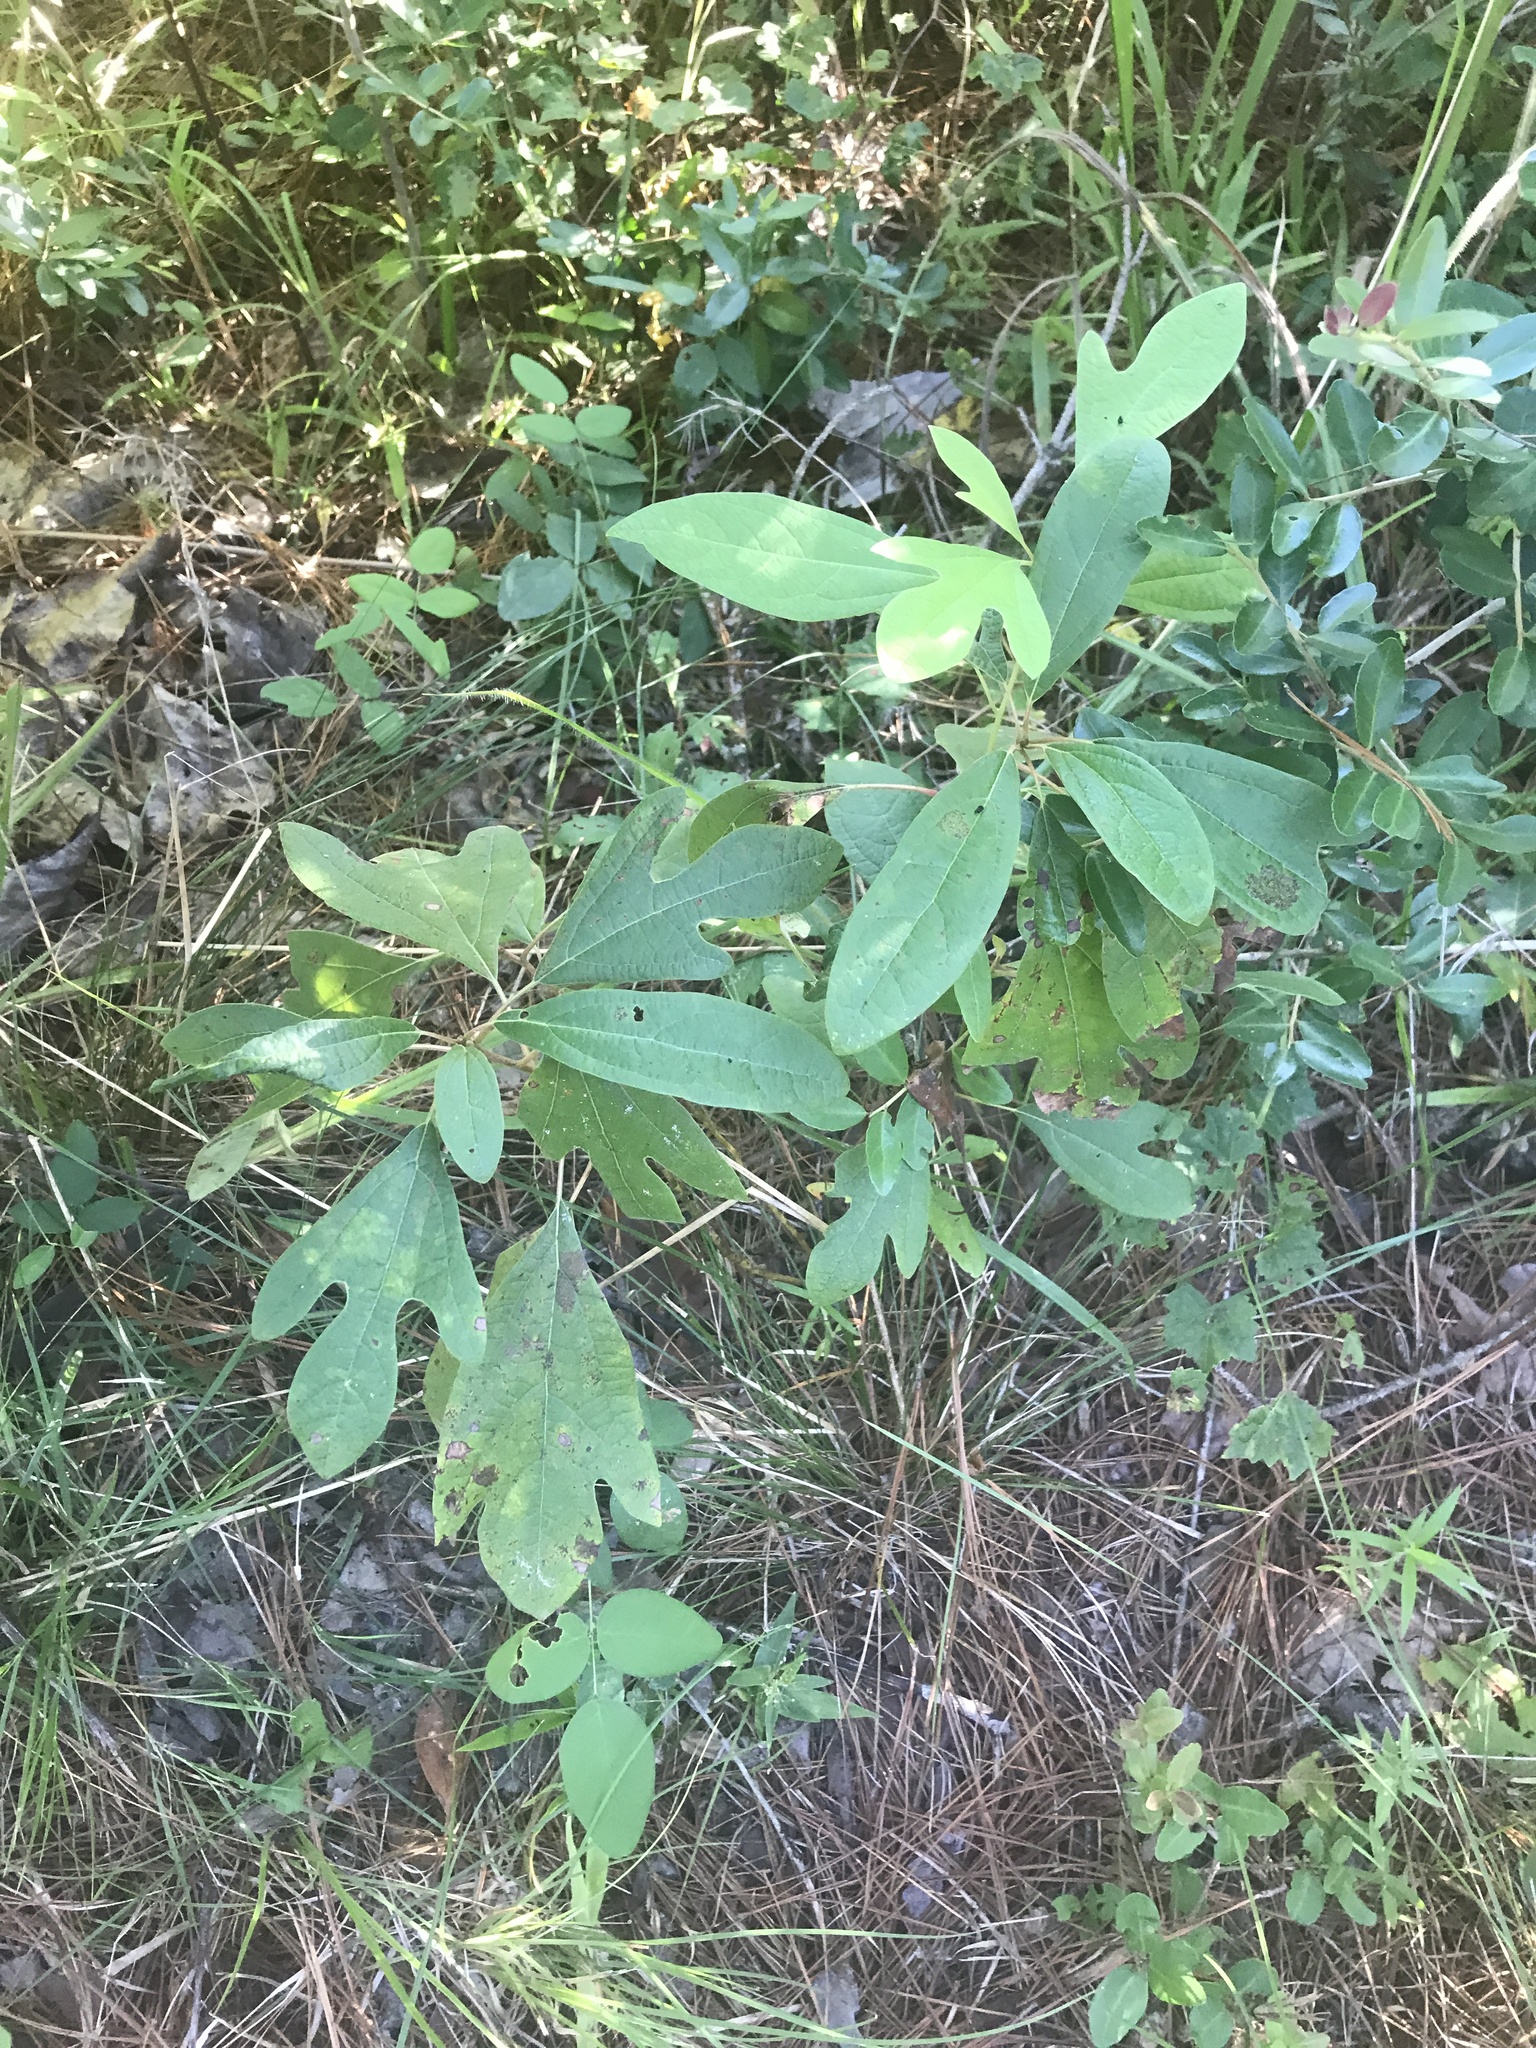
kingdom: Plantae
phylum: Tracheophyta
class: Magnoliopsida
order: Laurales
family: Lauraceae
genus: Sassafras
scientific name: Sassafras albidum
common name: Sassafras
